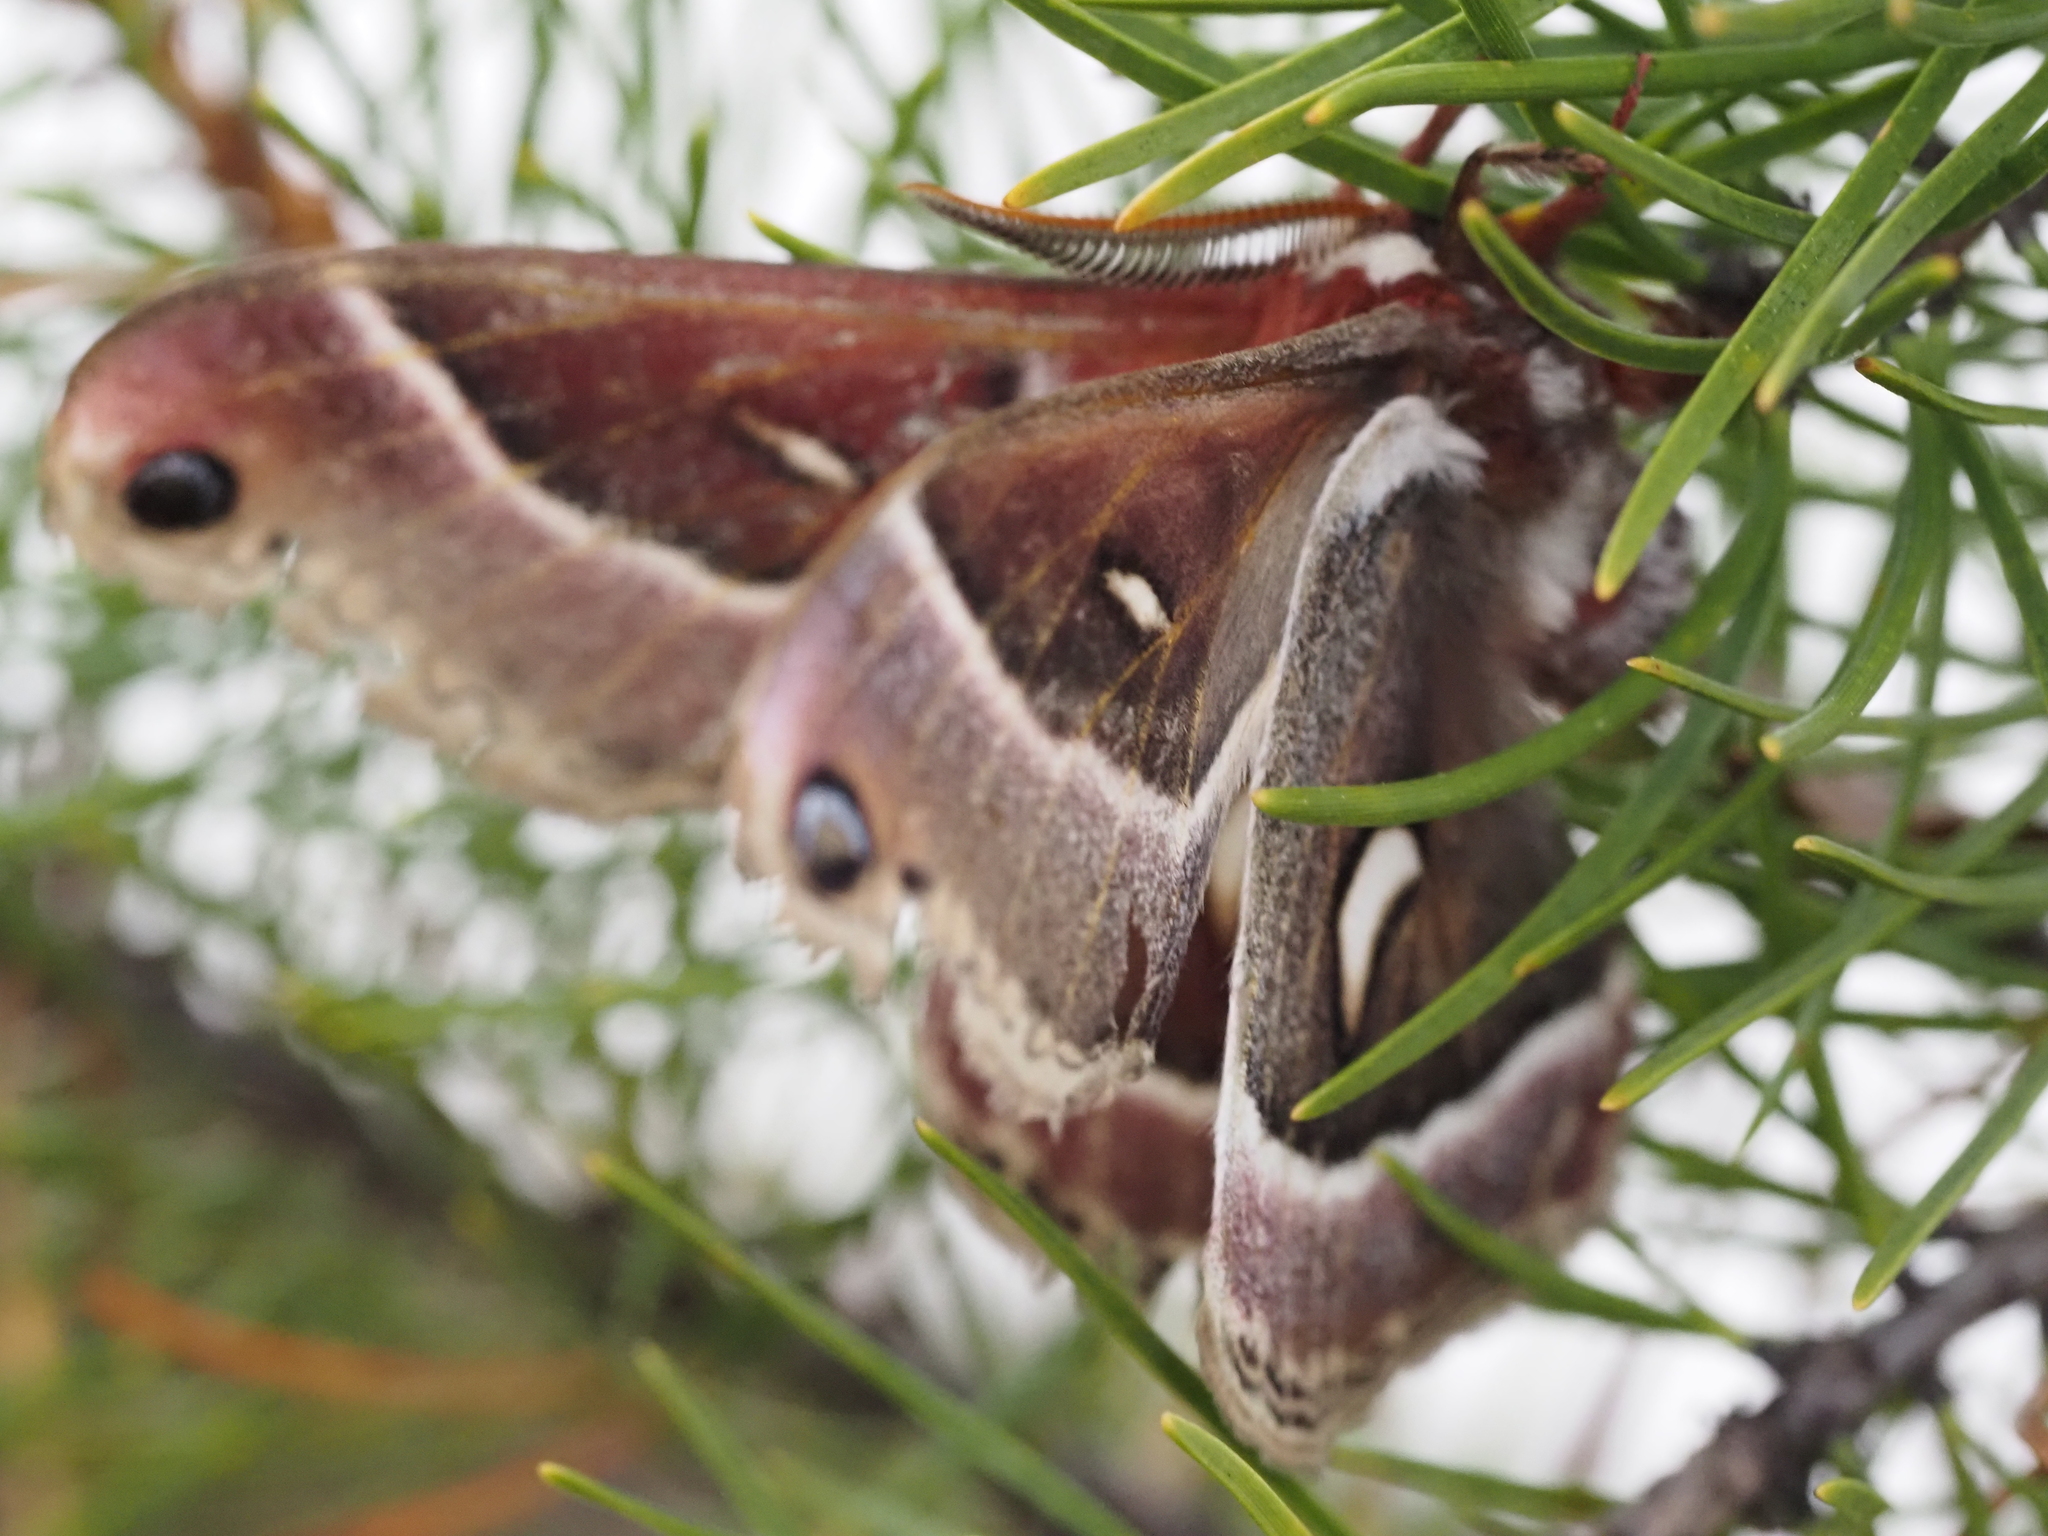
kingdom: Animalia
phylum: Arthropoda
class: Insecta
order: Lepidoptera
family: Saturniidae
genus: Hyalophora
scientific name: Hyalophora euryalus
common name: Ceanothus silkmoth
